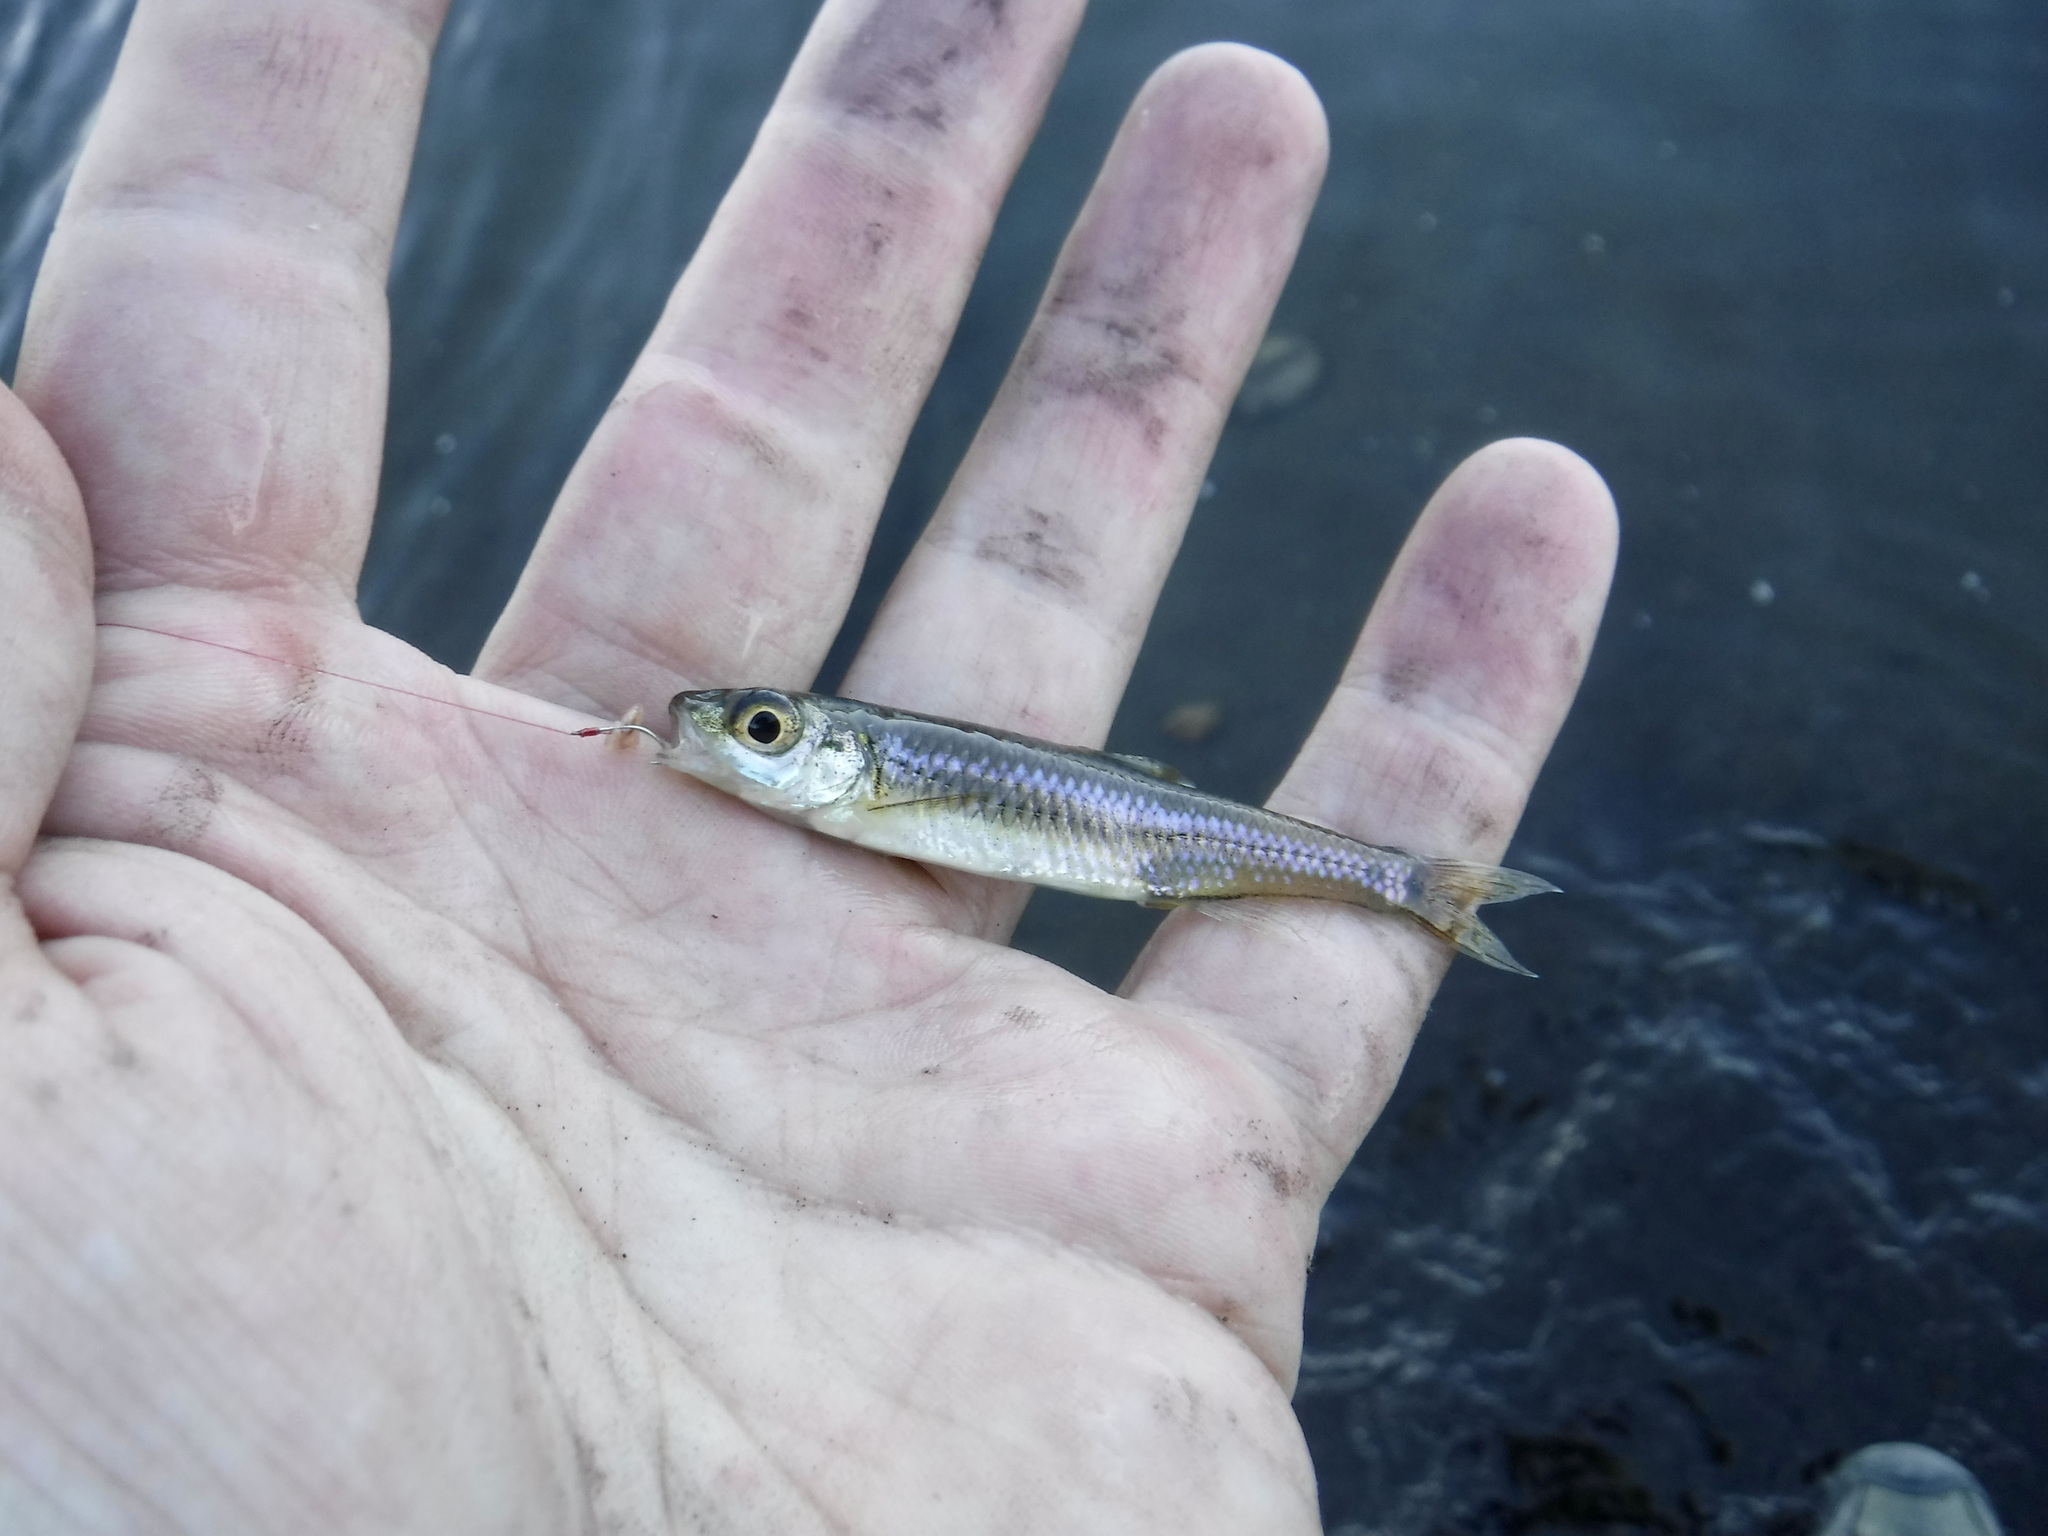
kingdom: Animalia
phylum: Chordata
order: Cypriniformes
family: Cyprinidae
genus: Notropis
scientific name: Notropis
